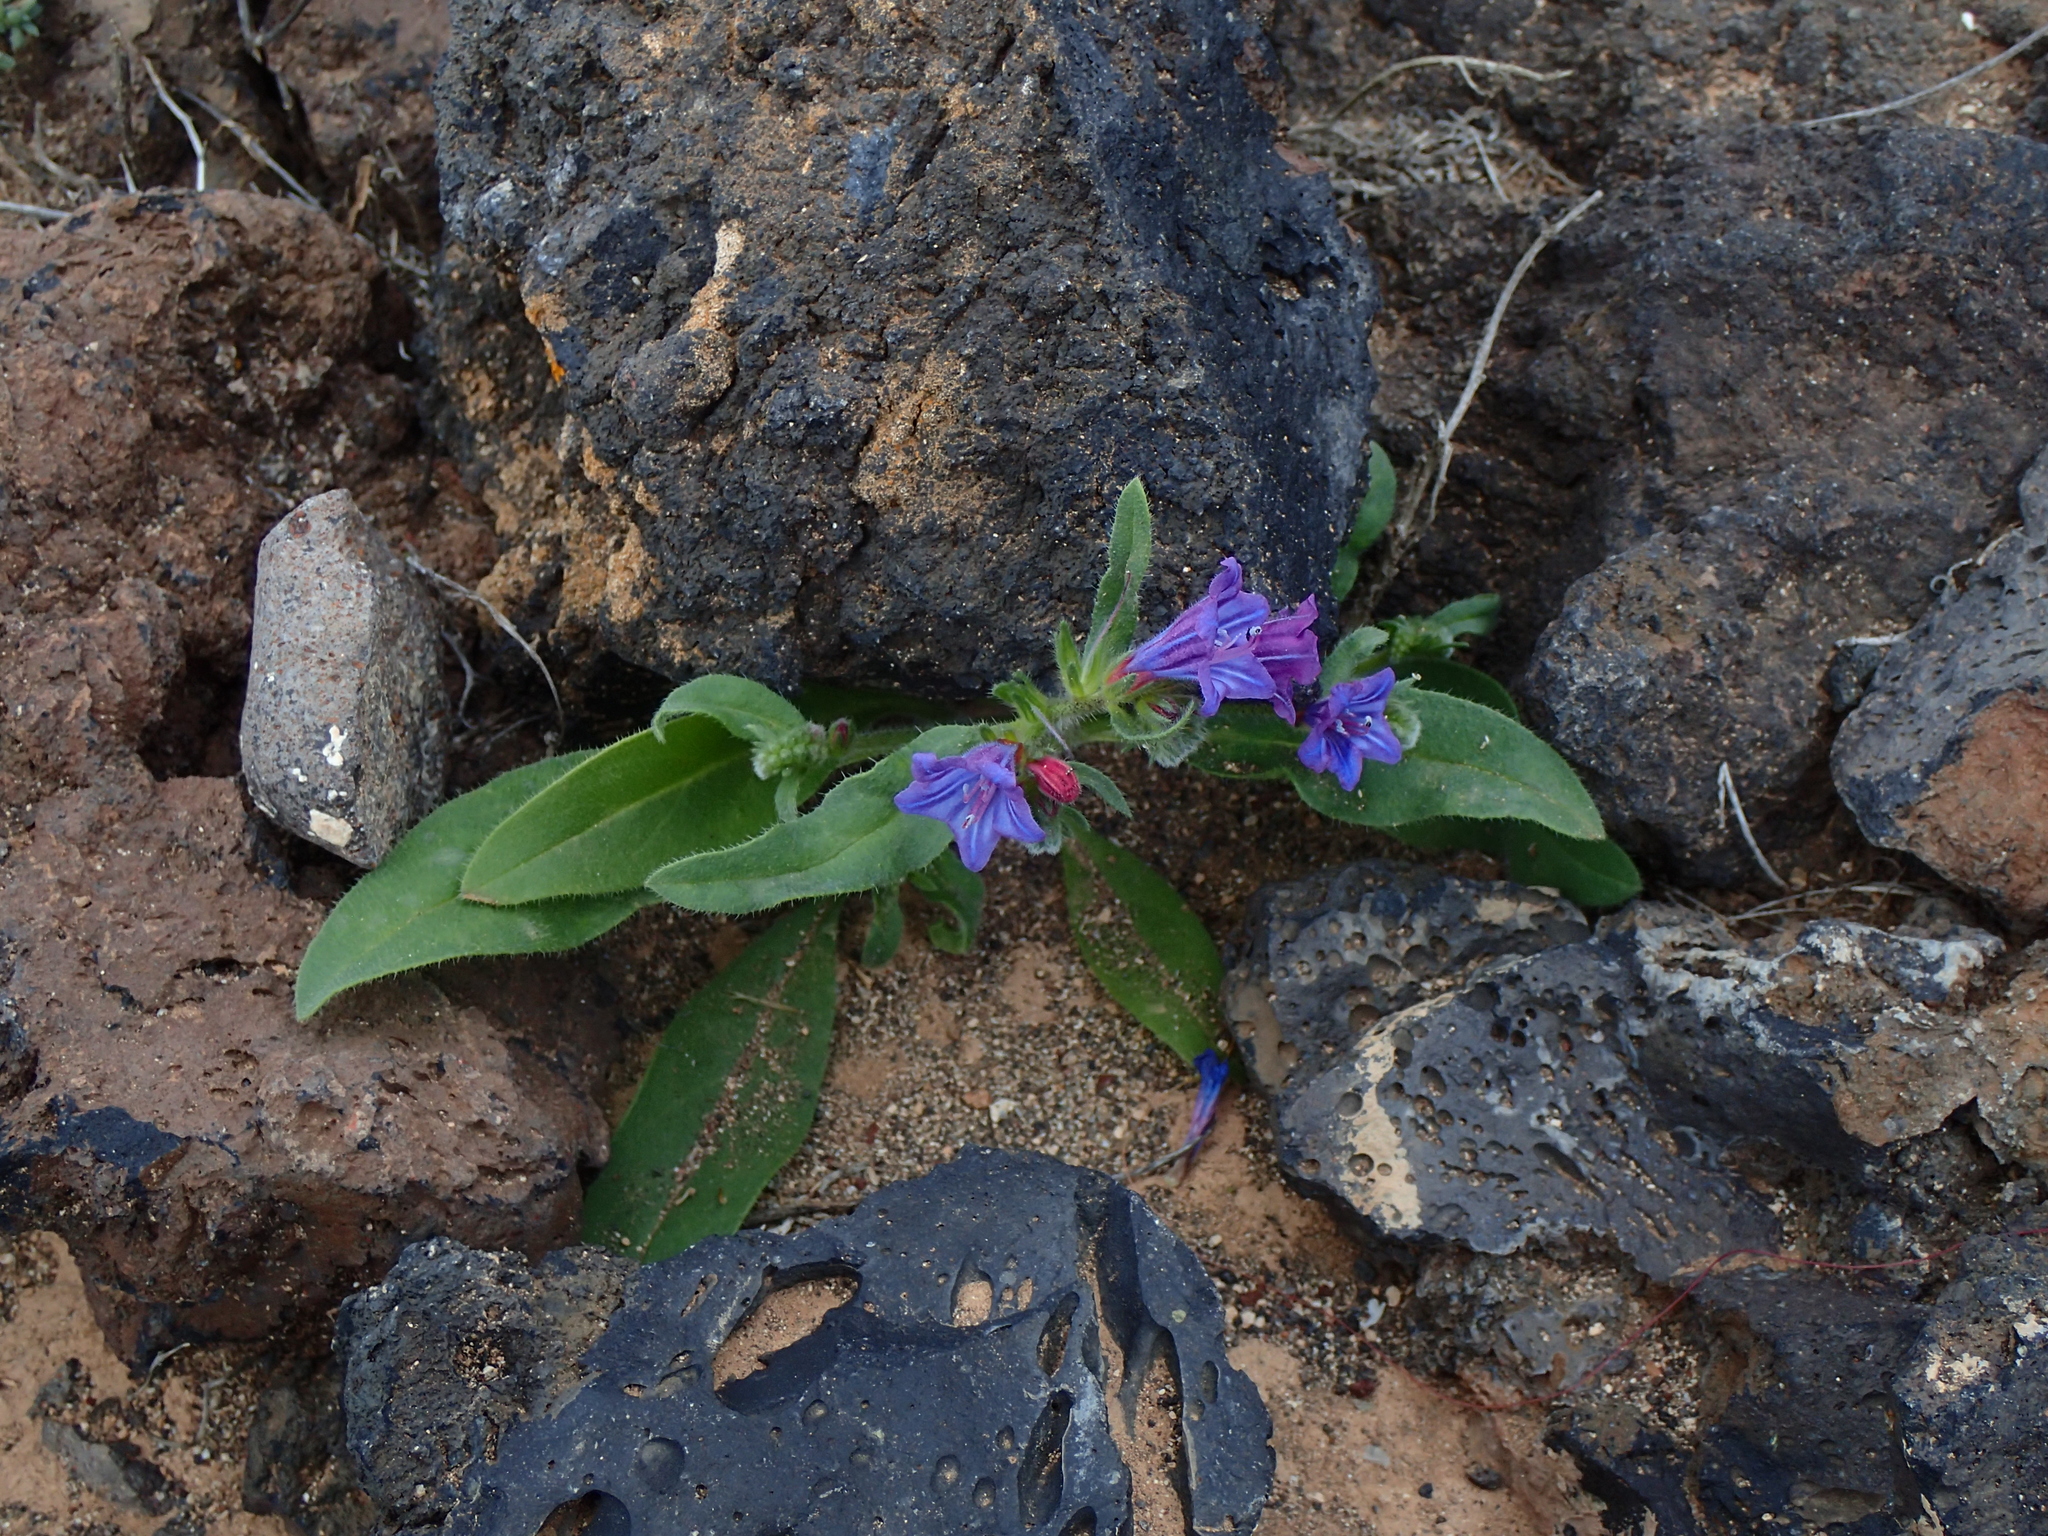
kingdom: Plantae
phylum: Tracheophyta
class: Magnoliopsida
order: Boraginales
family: Boraginaceae
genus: Echium
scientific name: Echium bonnetii
